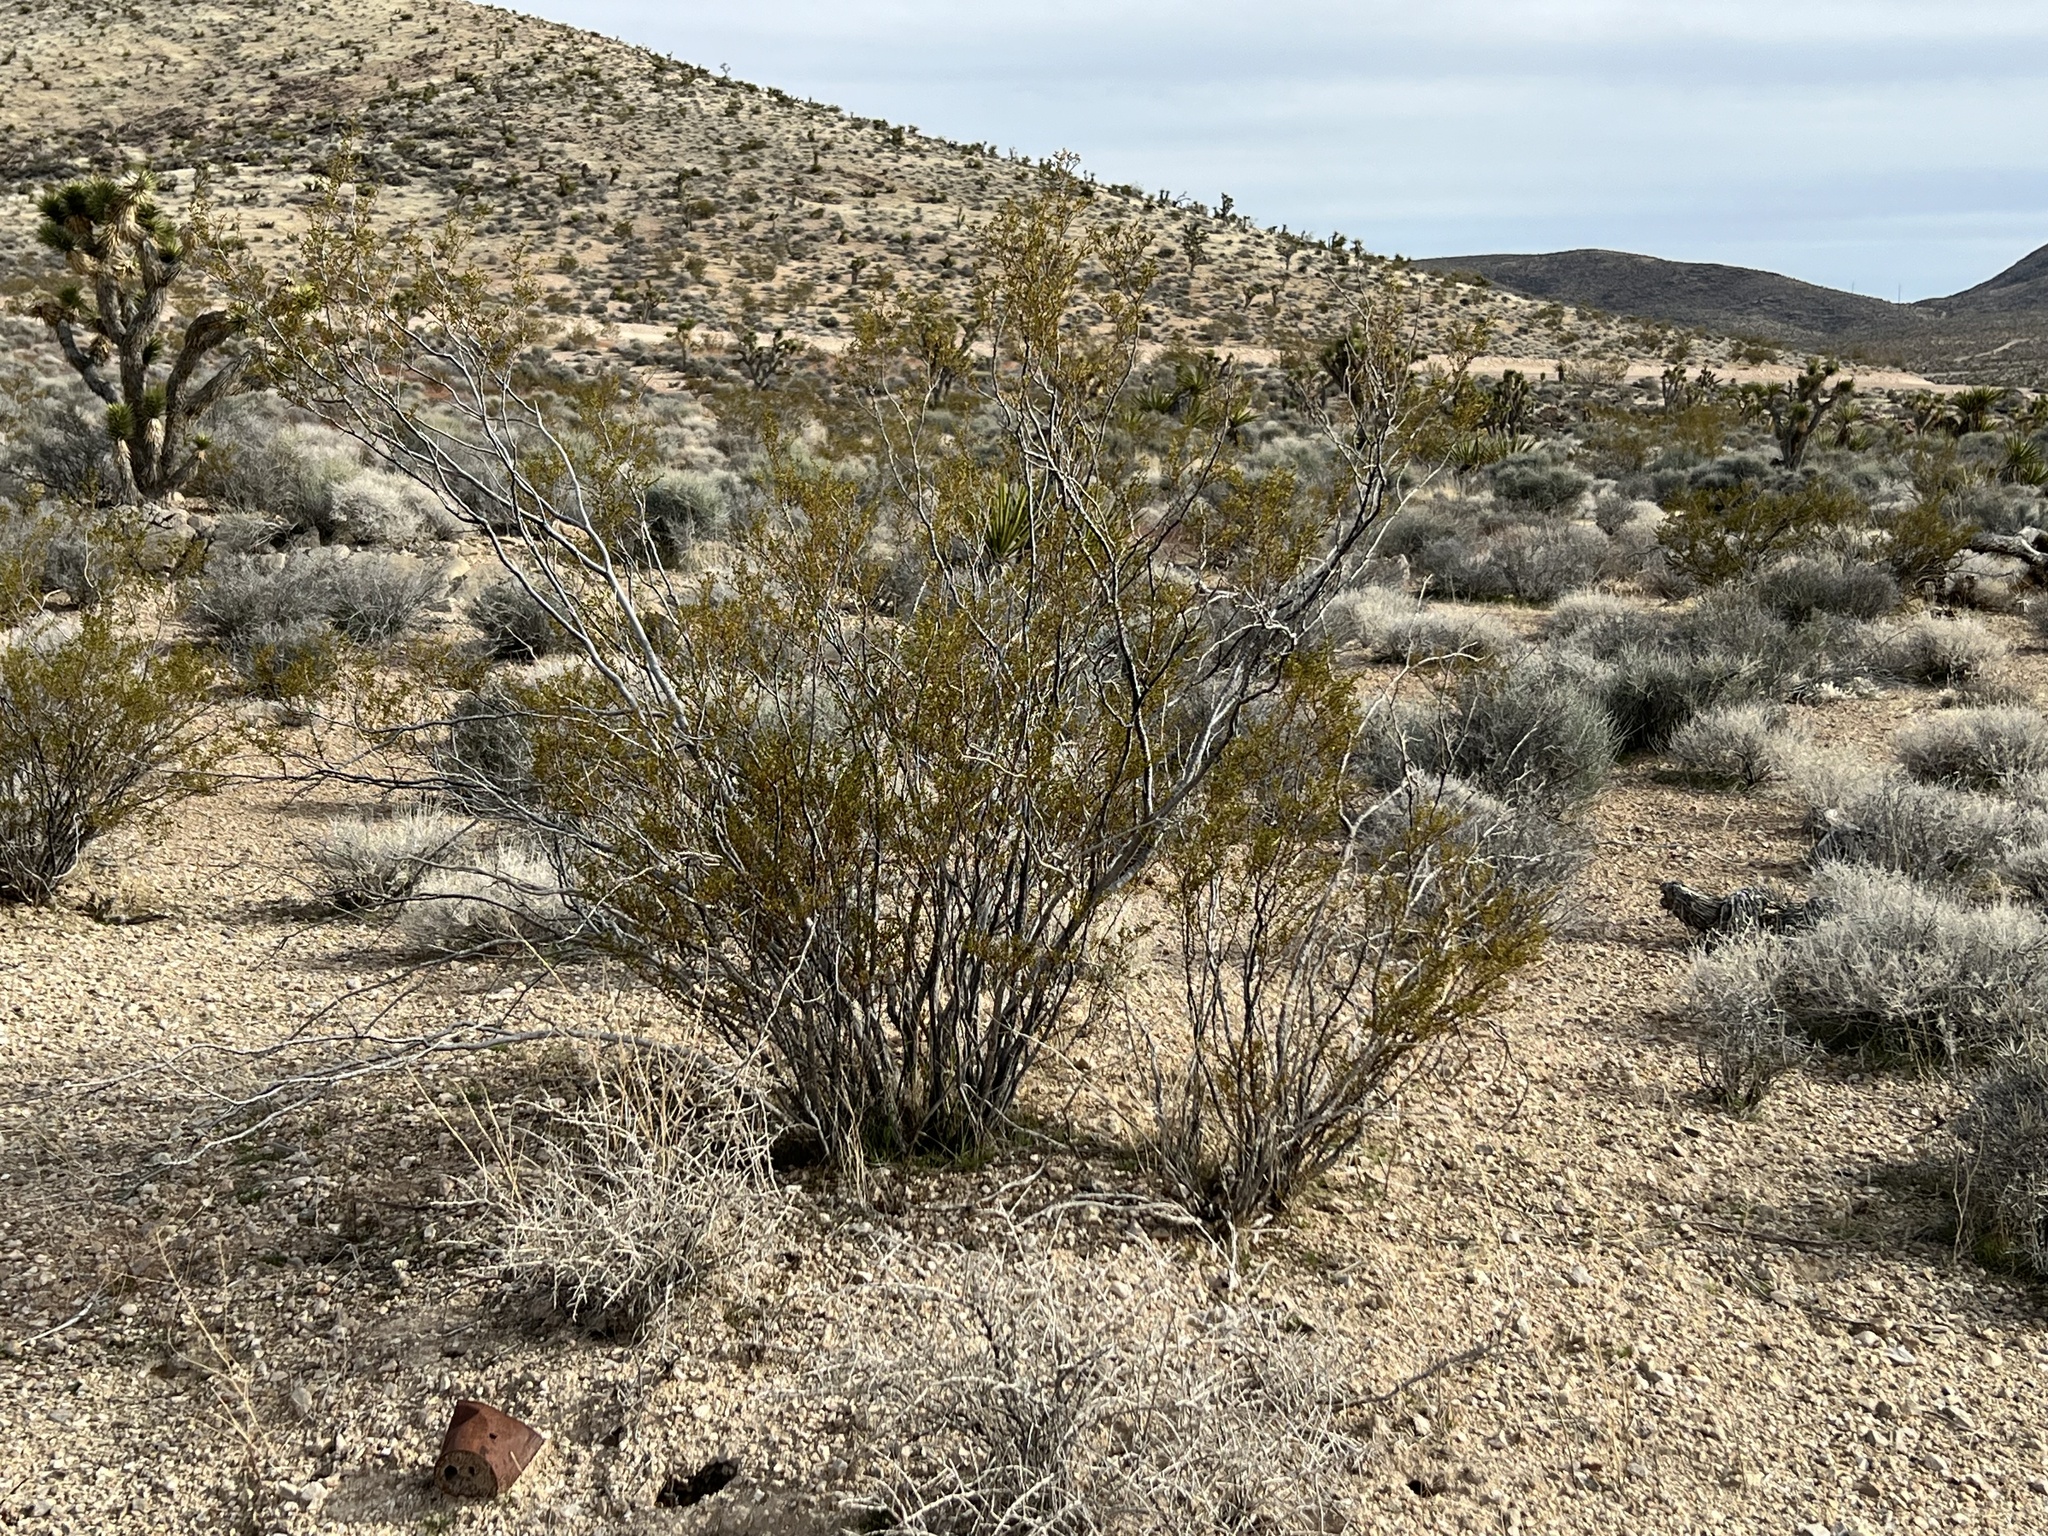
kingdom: Plantae
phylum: Tracheophyta
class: Magnoliopsida
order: Zygophyllales
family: Zygophyllaceae
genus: Larrea
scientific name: Larrea tridentata
